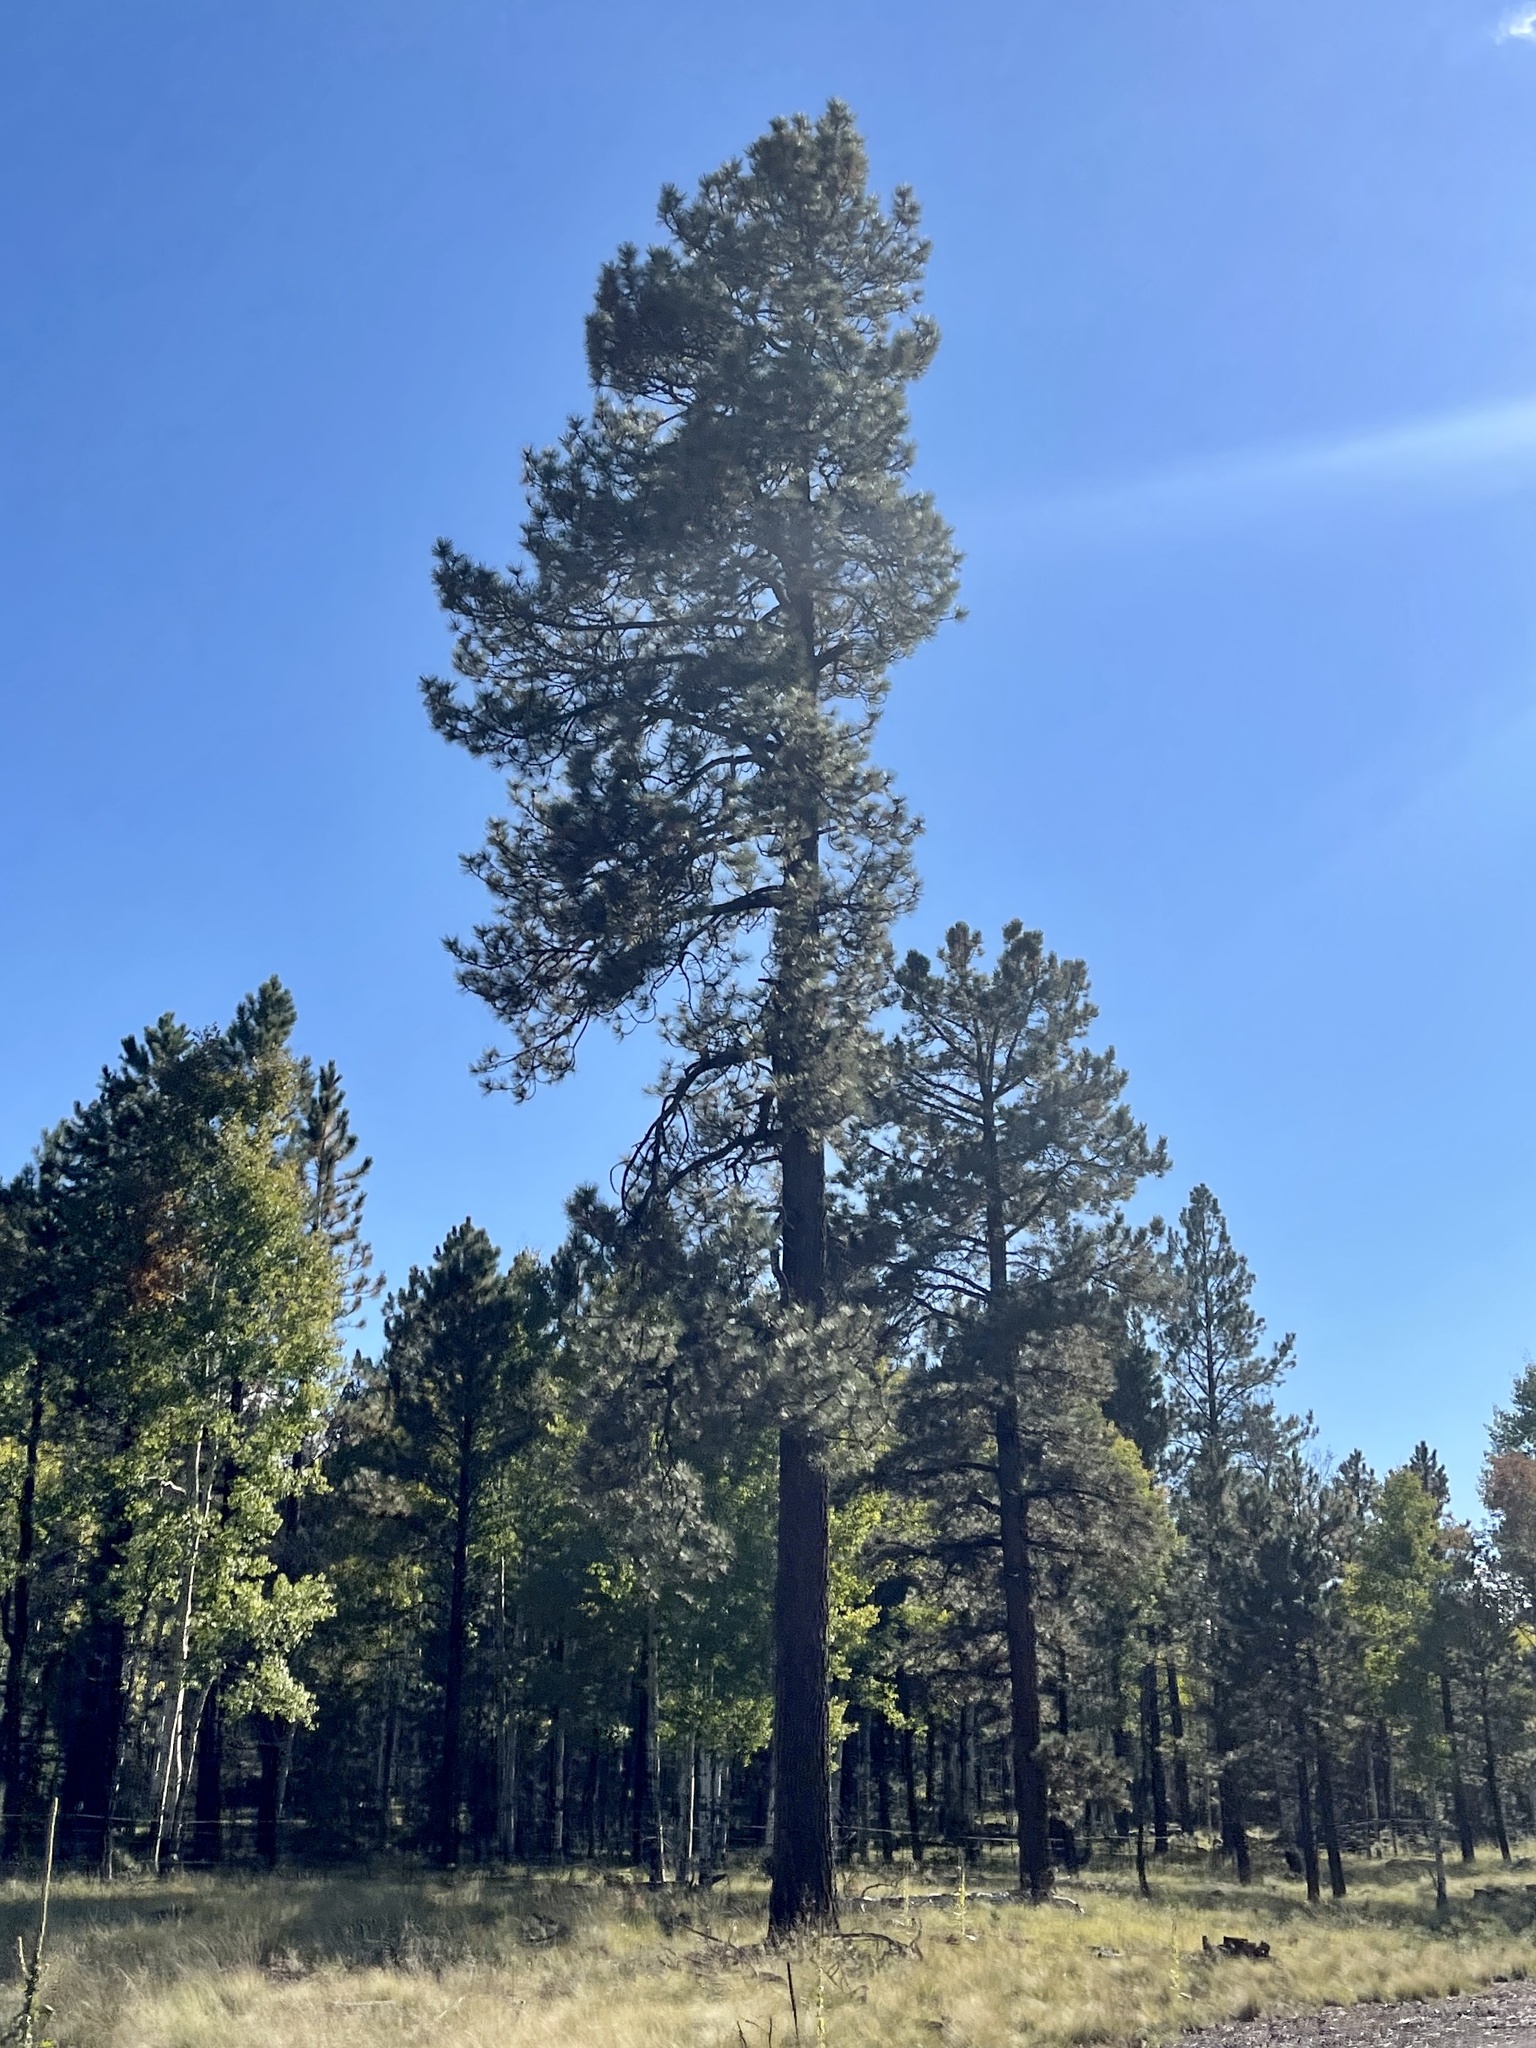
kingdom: Plantae
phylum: Tracheophyta
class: Pinopsida
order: Pinales
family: Pinaceae
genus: Pinus
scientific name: Pinus ponderosa
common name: Western yellow-pine
